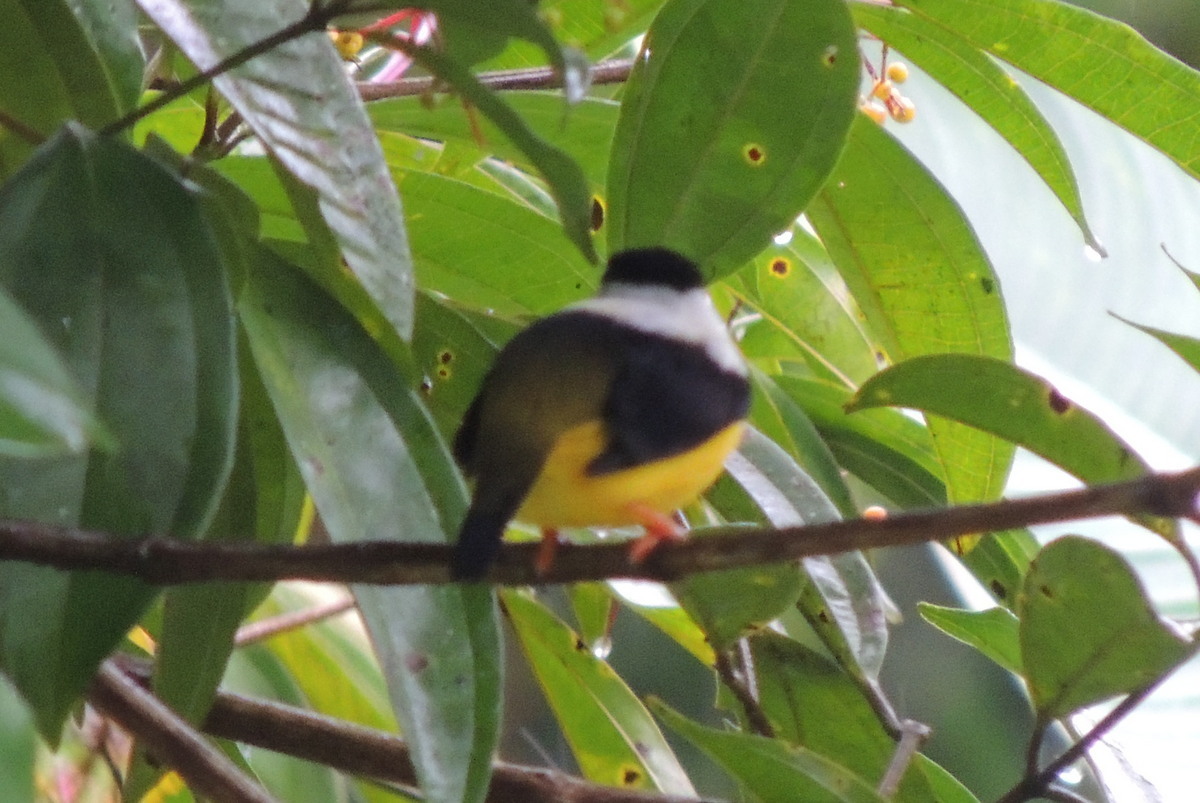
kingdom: Animalia
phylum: Chordata
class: Aves
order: Passeriformes
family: Pipridae
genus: Manacus
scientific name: Manacus candei
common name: White-collared manakin
